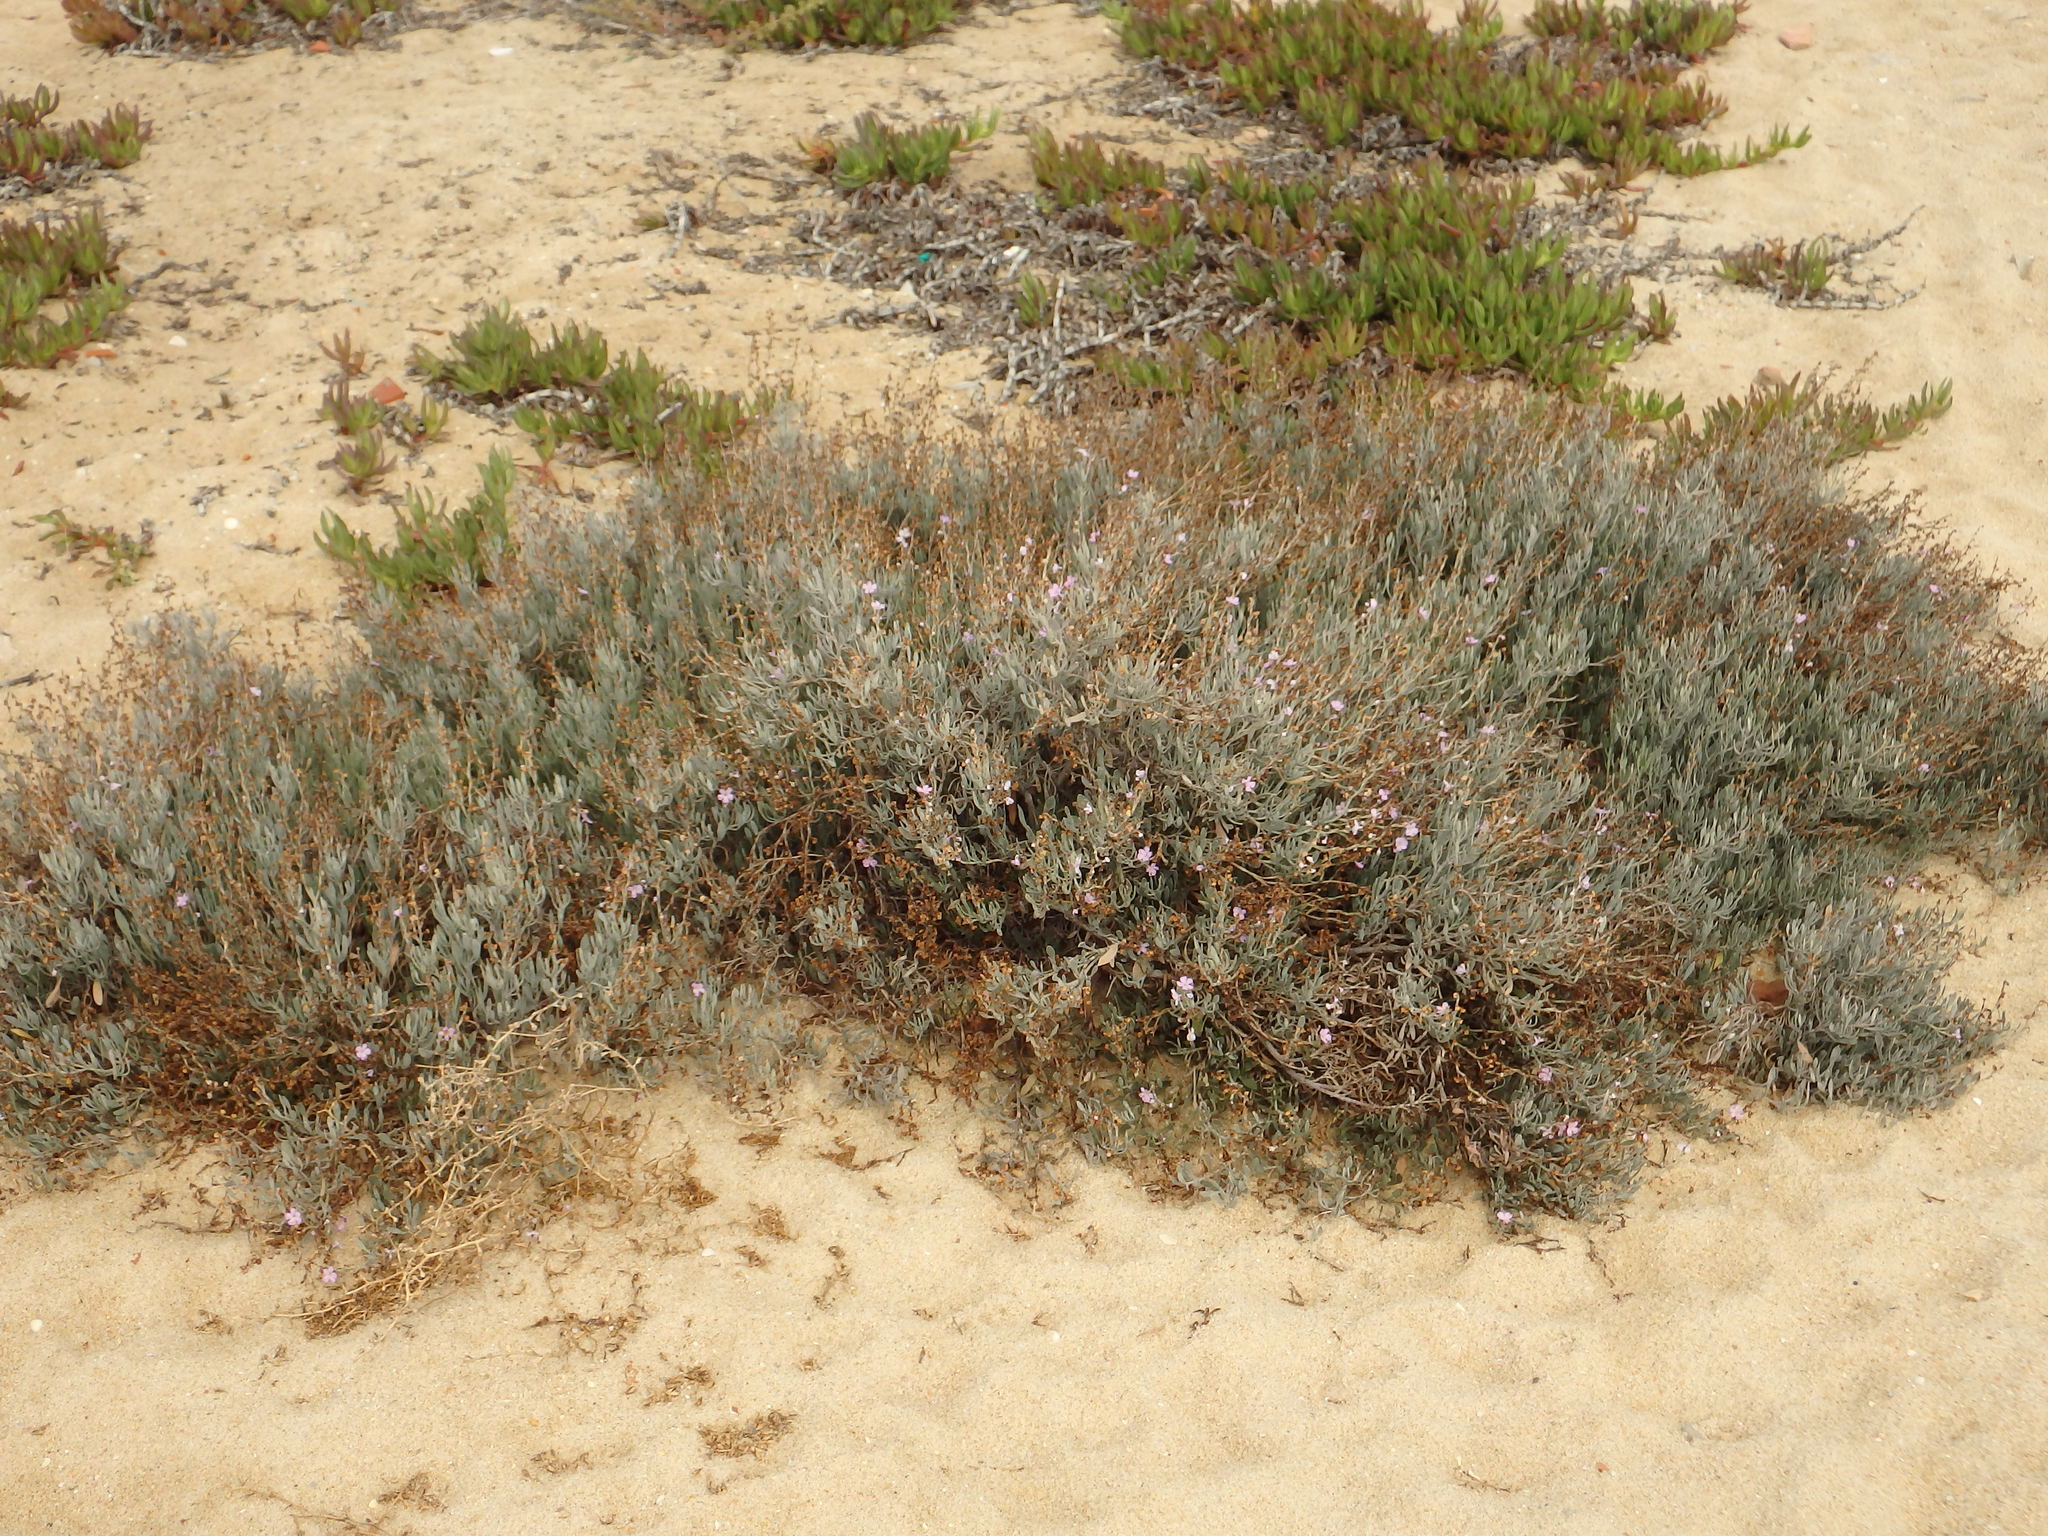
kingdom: Plantae
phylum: Tracheophyta
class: Magnoliopsida
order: Caryophyllales
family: Plumbaginaceae
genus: Limoniastrum
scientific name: Limoniastrum monopetalum
